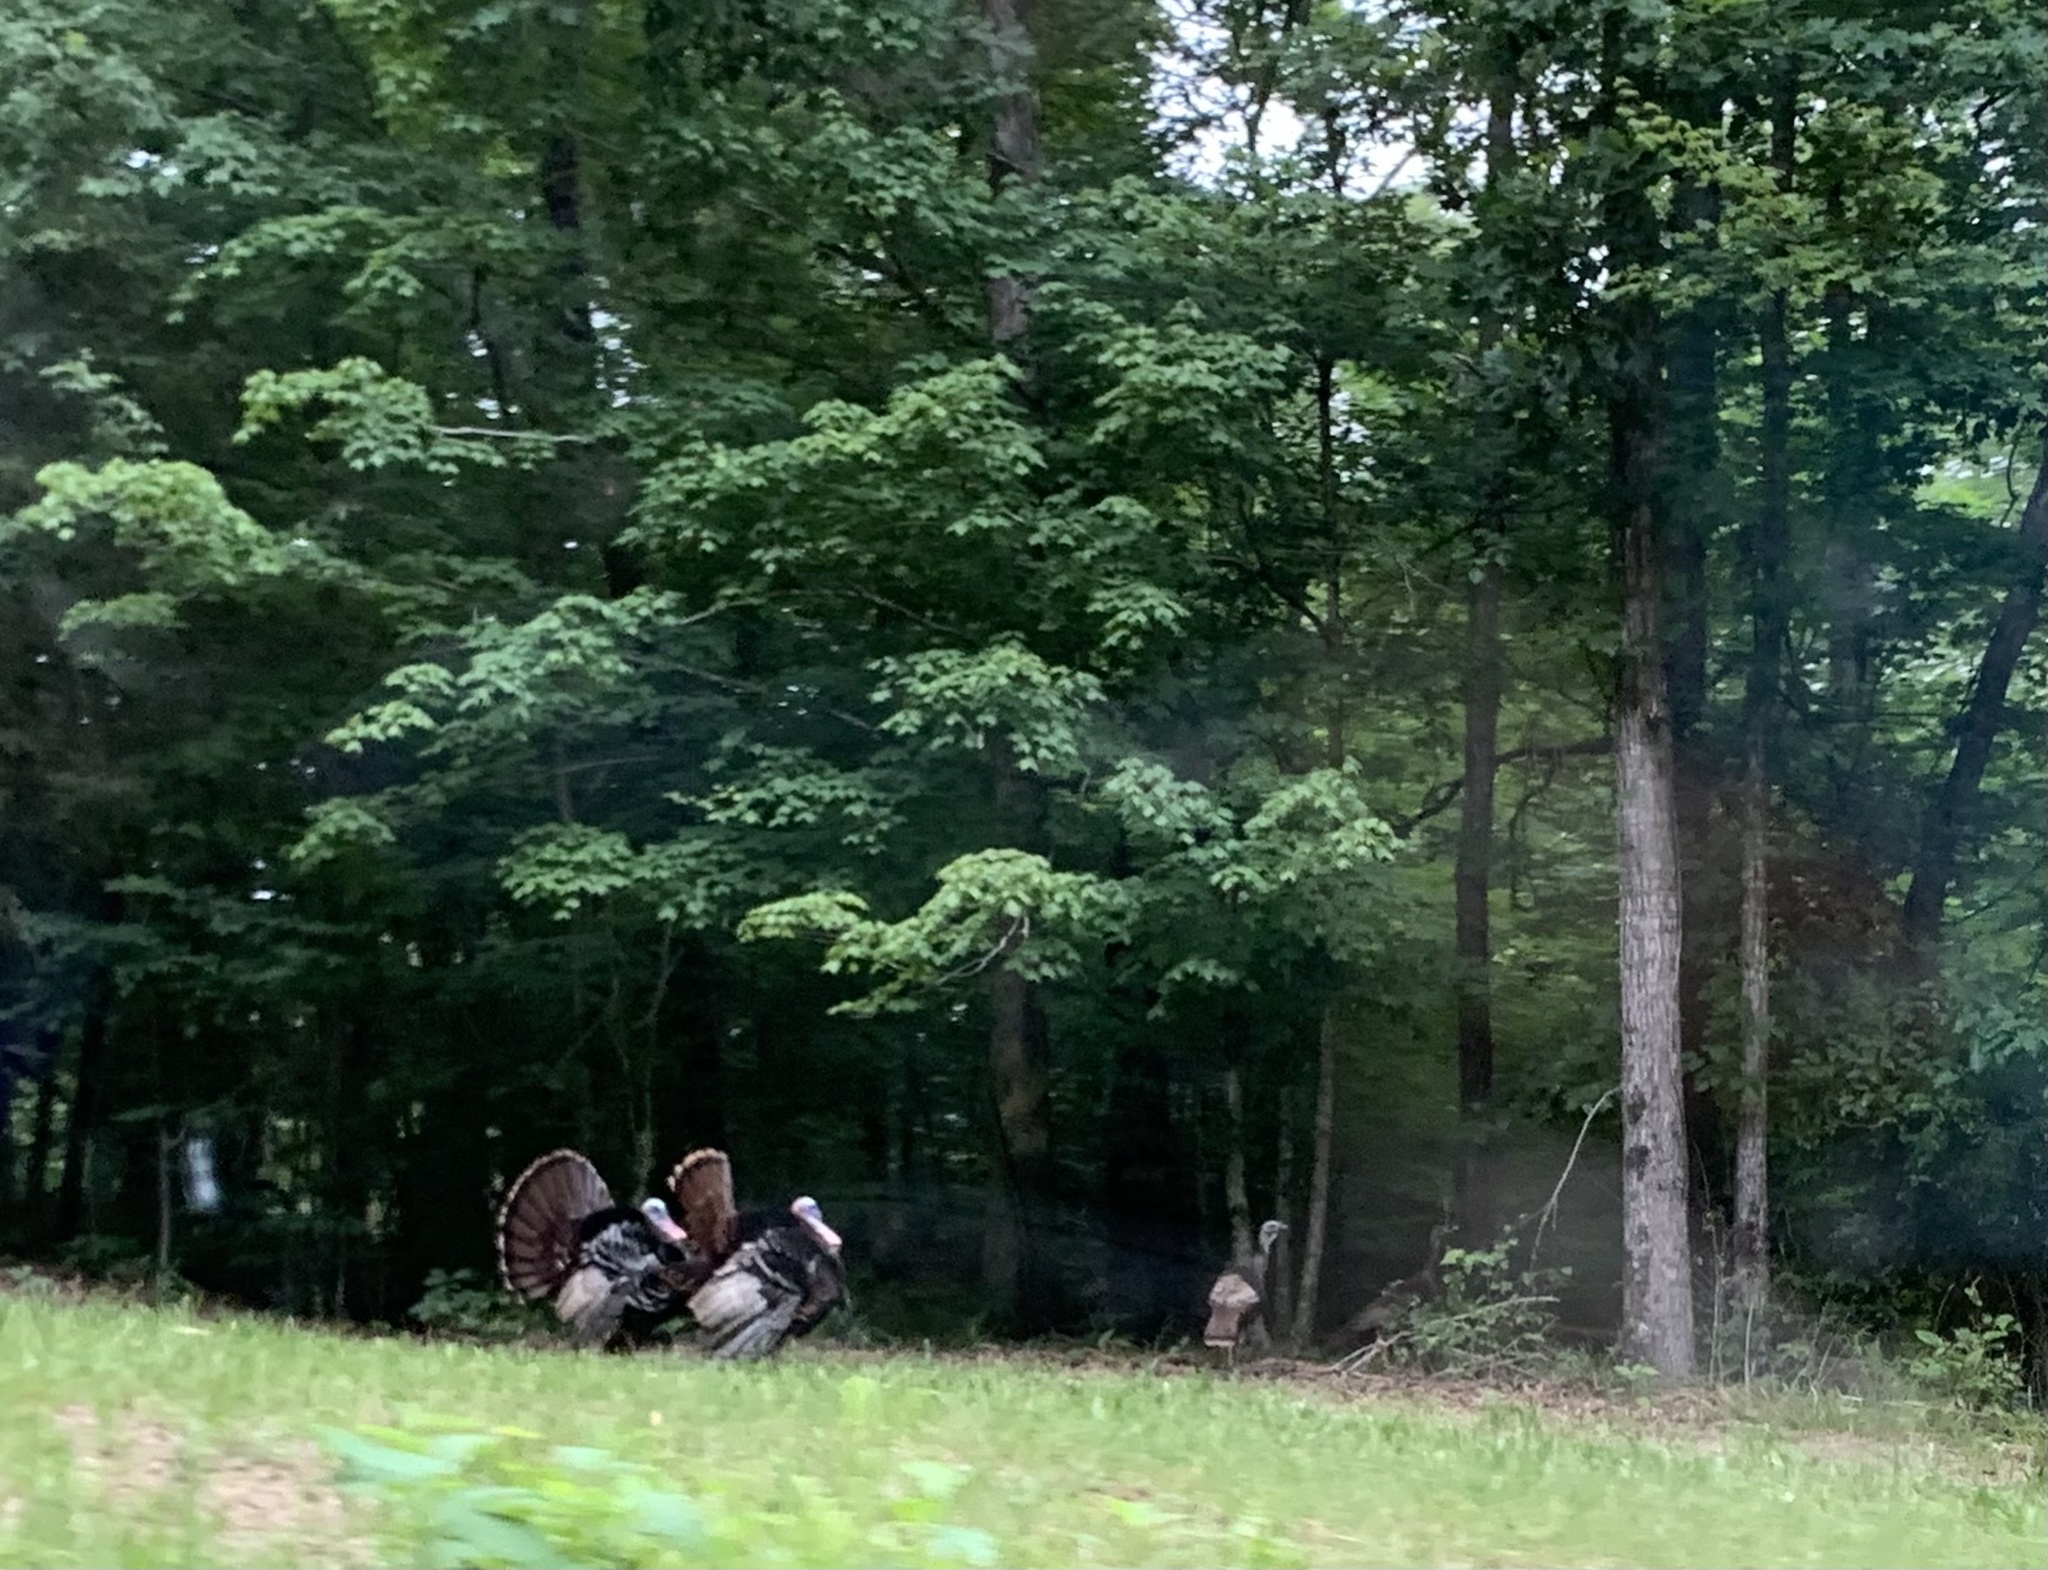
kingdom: Animalia
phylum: Chordata
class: Aves
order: Galliformes
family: Phasianidae
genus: Meleagris
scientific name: Meleagris gallopavo
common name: Wild turkey
